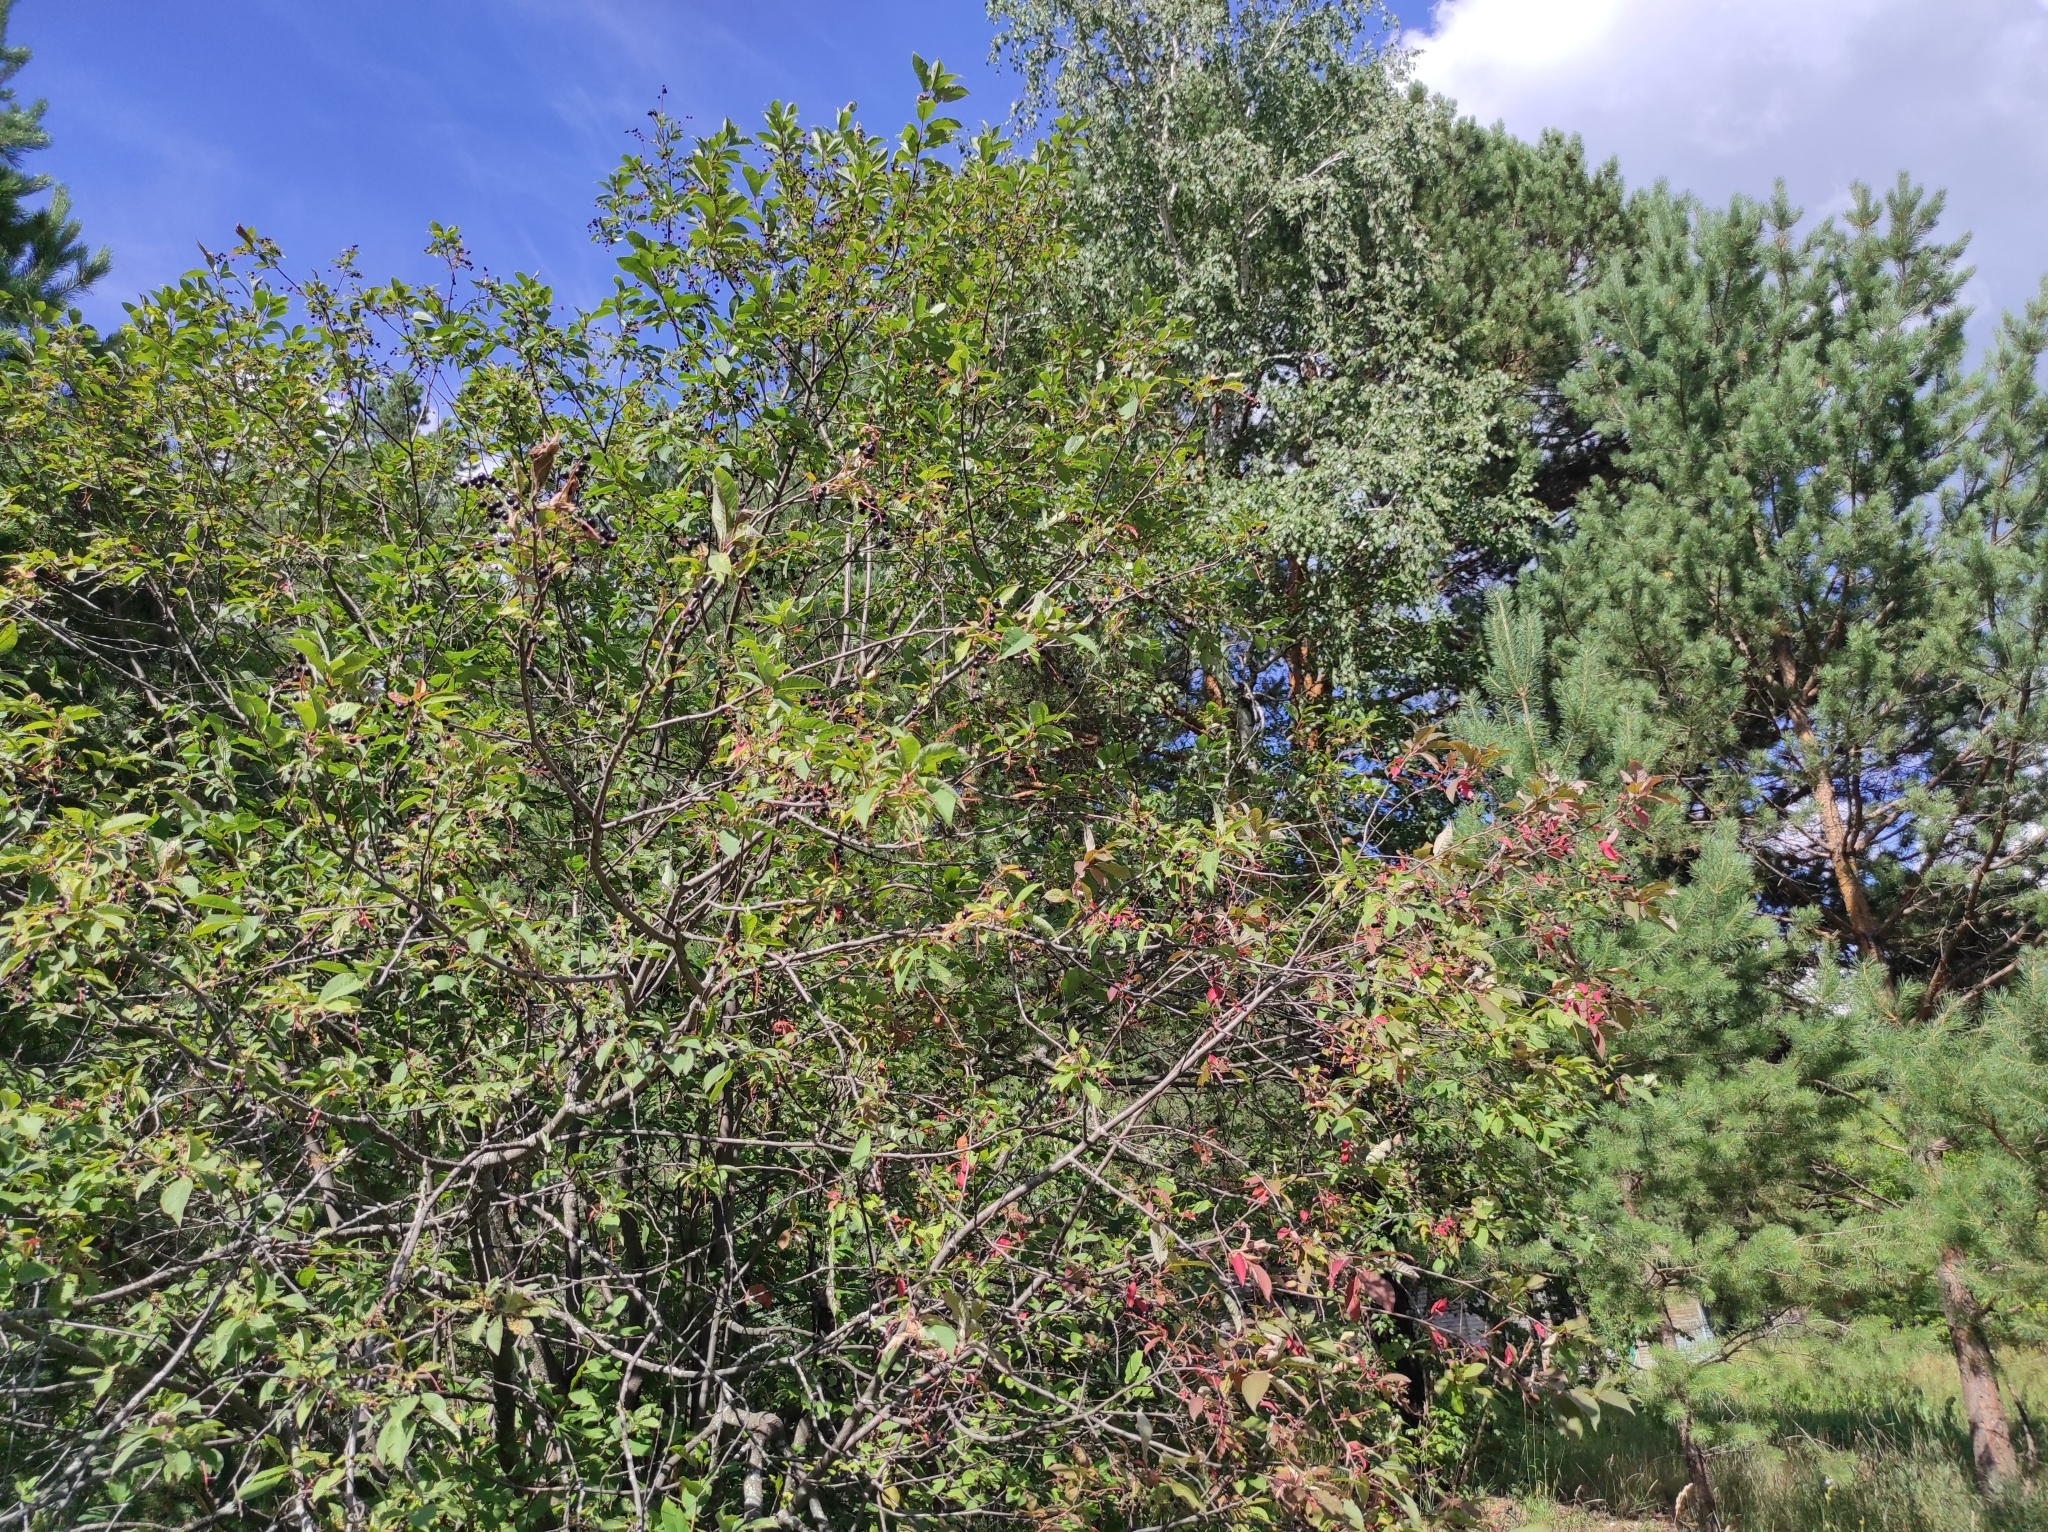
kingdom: Plantae
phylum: Tracheophyta
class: Magnoliopsida
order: Rosales
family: Rosaceae
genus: Prunus
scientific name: Prunus padus
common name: Bird cherry
